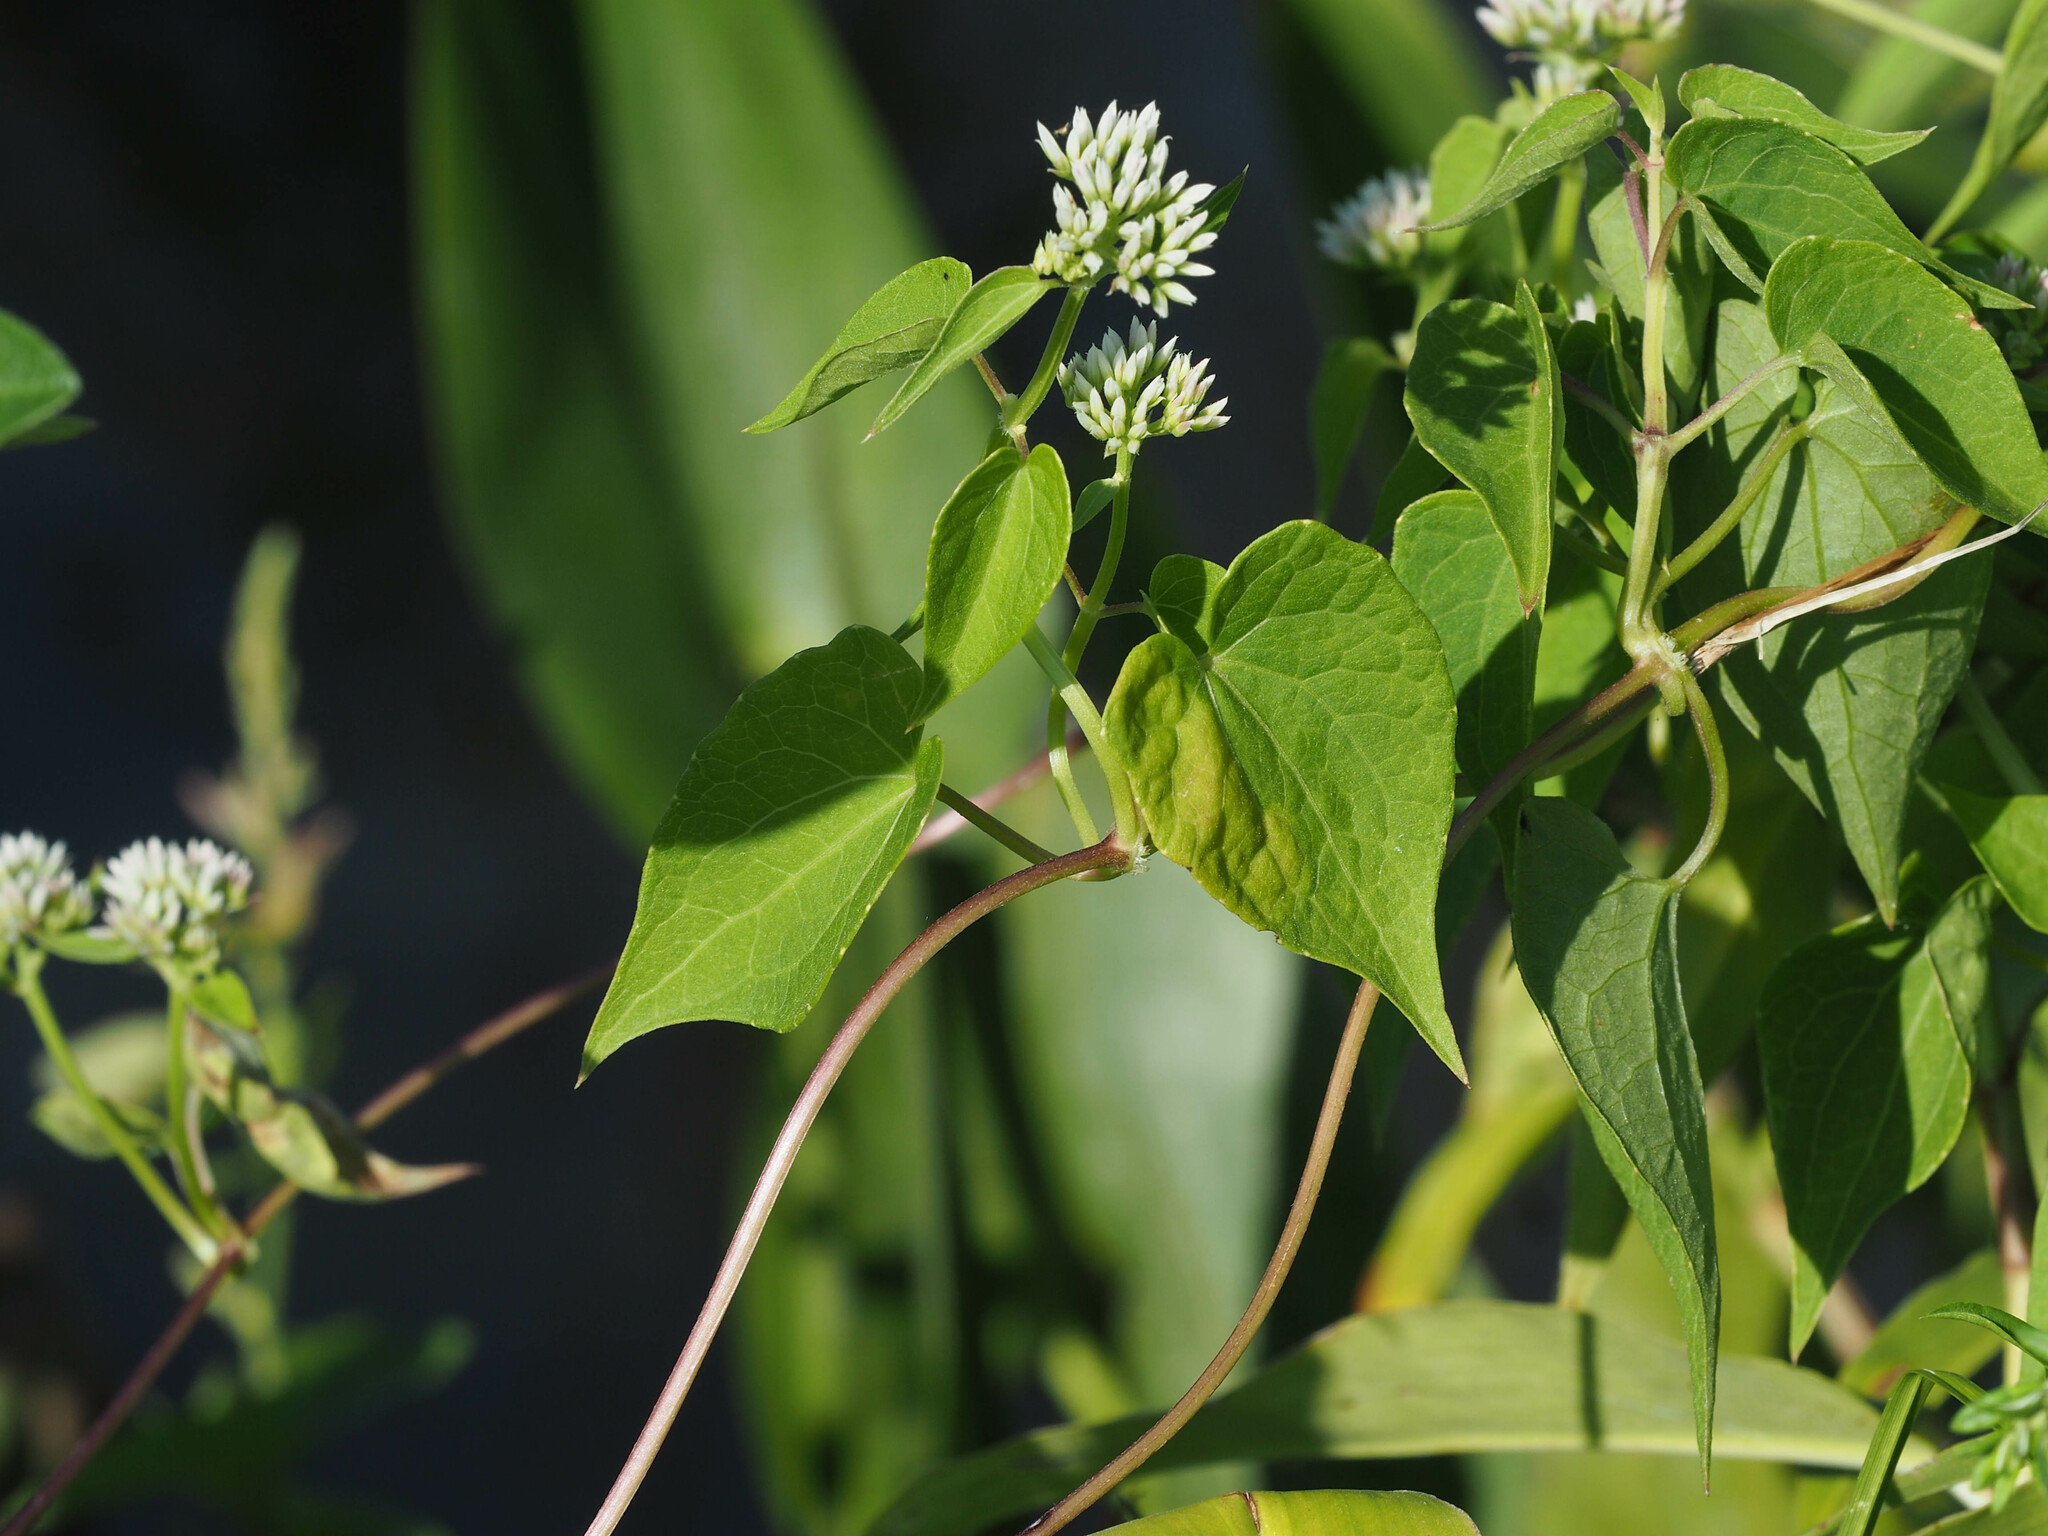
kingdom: Plantae
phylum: Tracheophyta
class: Magnoliopsida
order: Asterales
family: Asteraceae
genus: Mikania
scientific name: Mikania scandens
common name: Climbing hempvine
